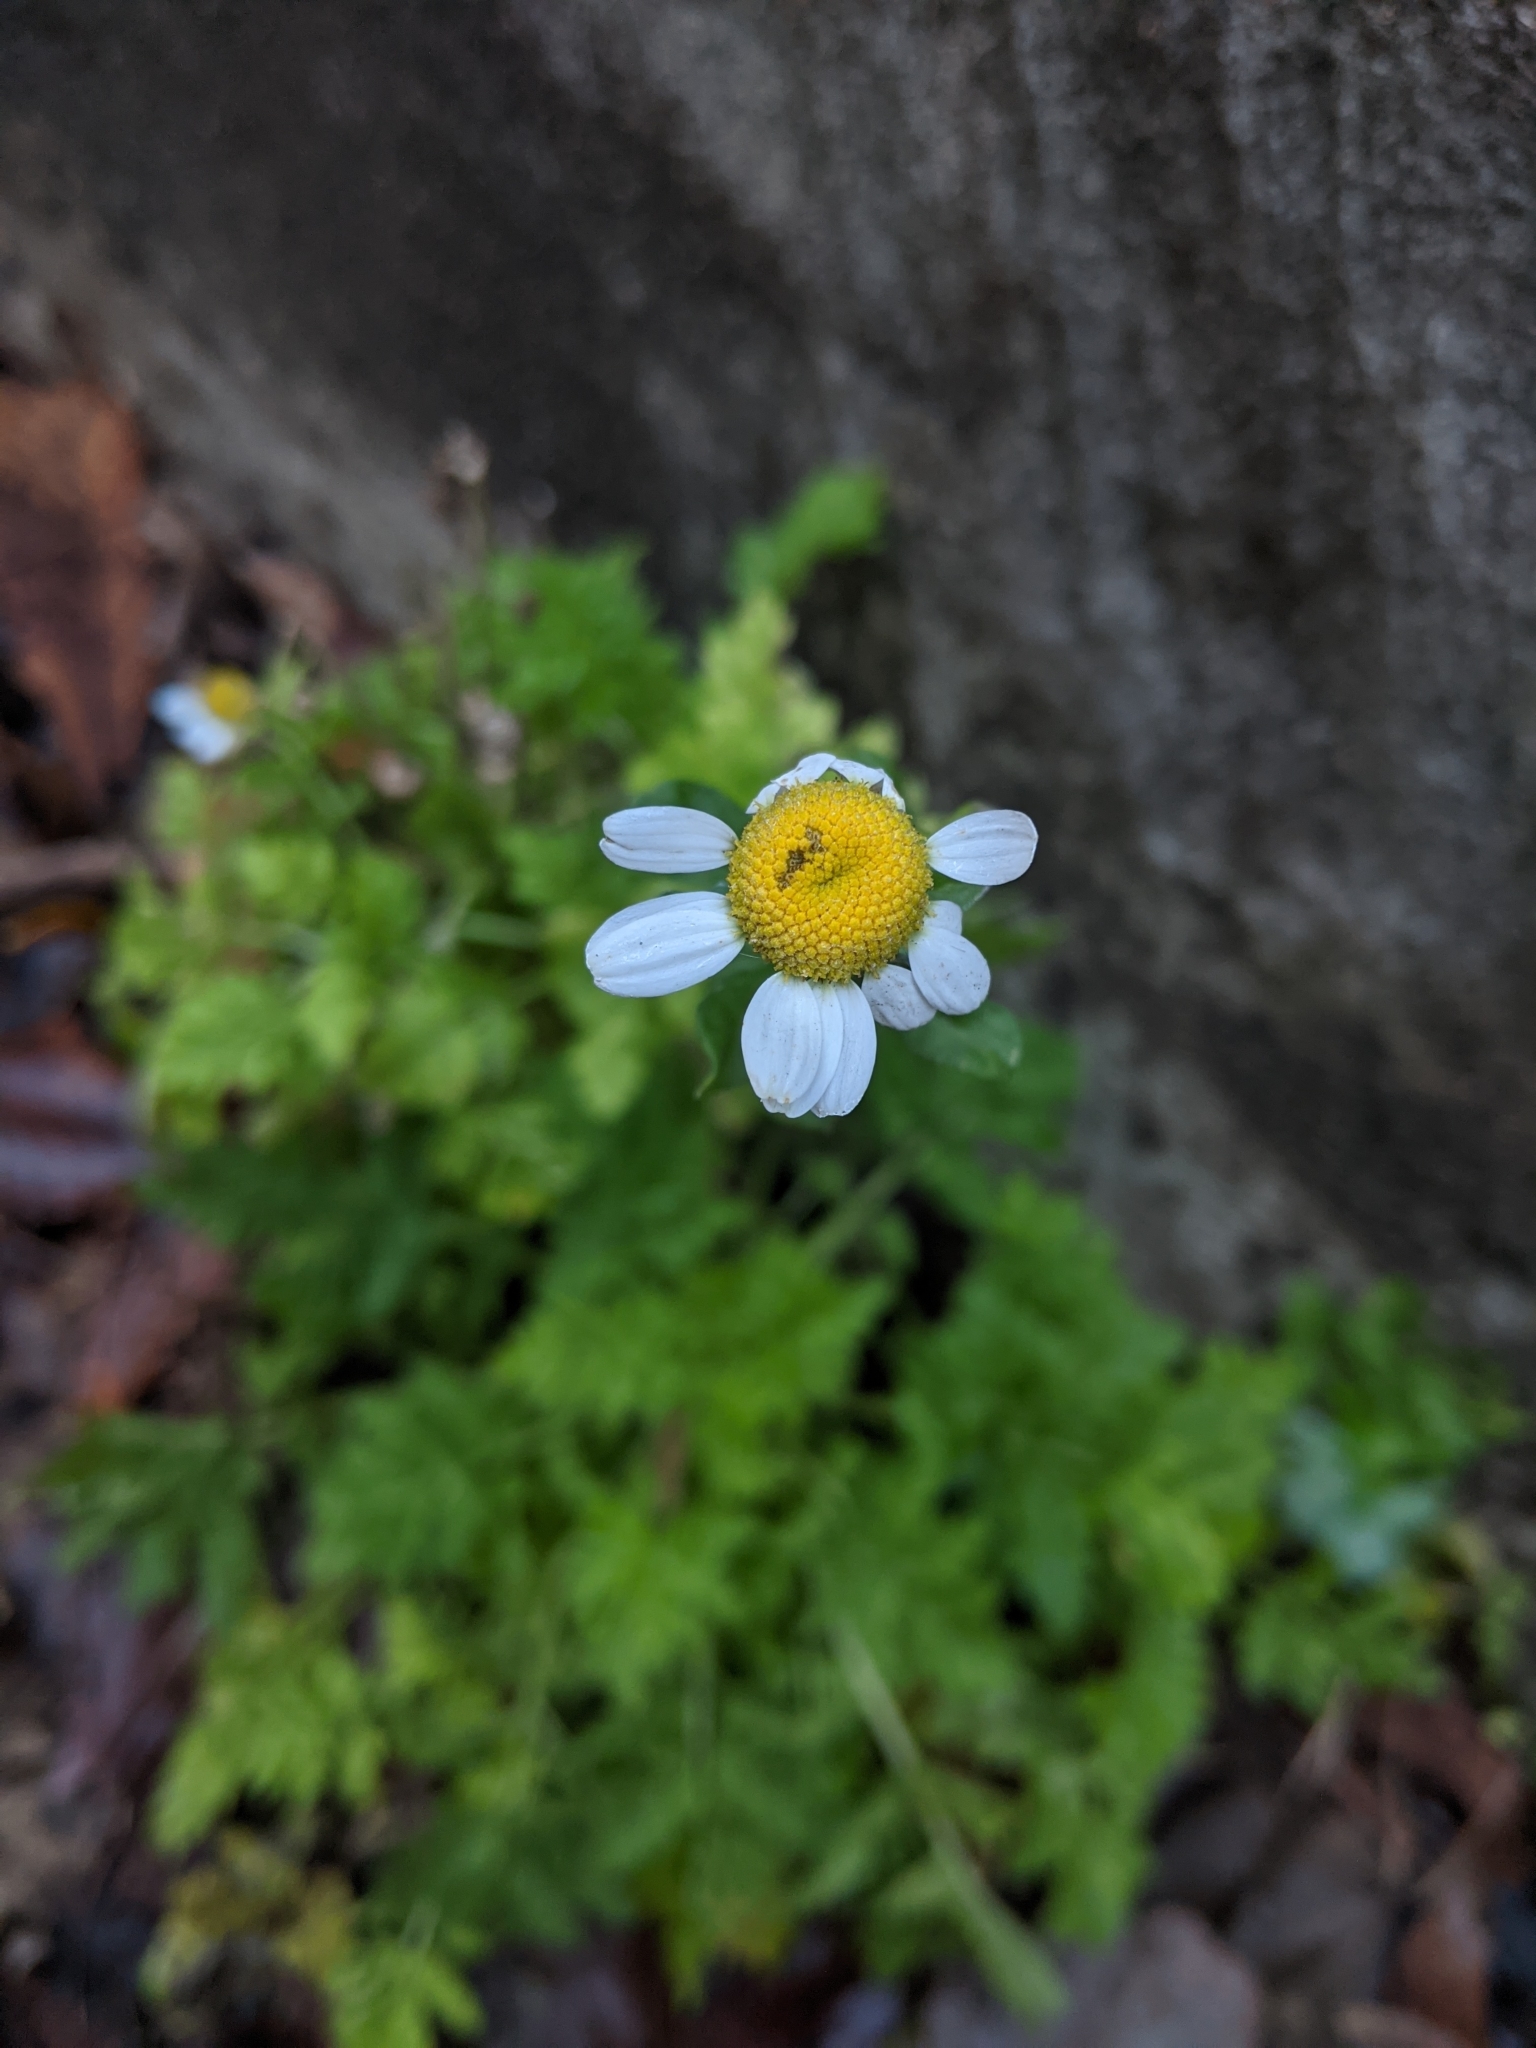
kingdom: Plantae
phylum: Tracheophyta
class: Magnoliopsida
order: Asterales
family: Asteraceae
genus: Tanacetum
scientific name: Tanacetum parthenium
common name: Feverfew
